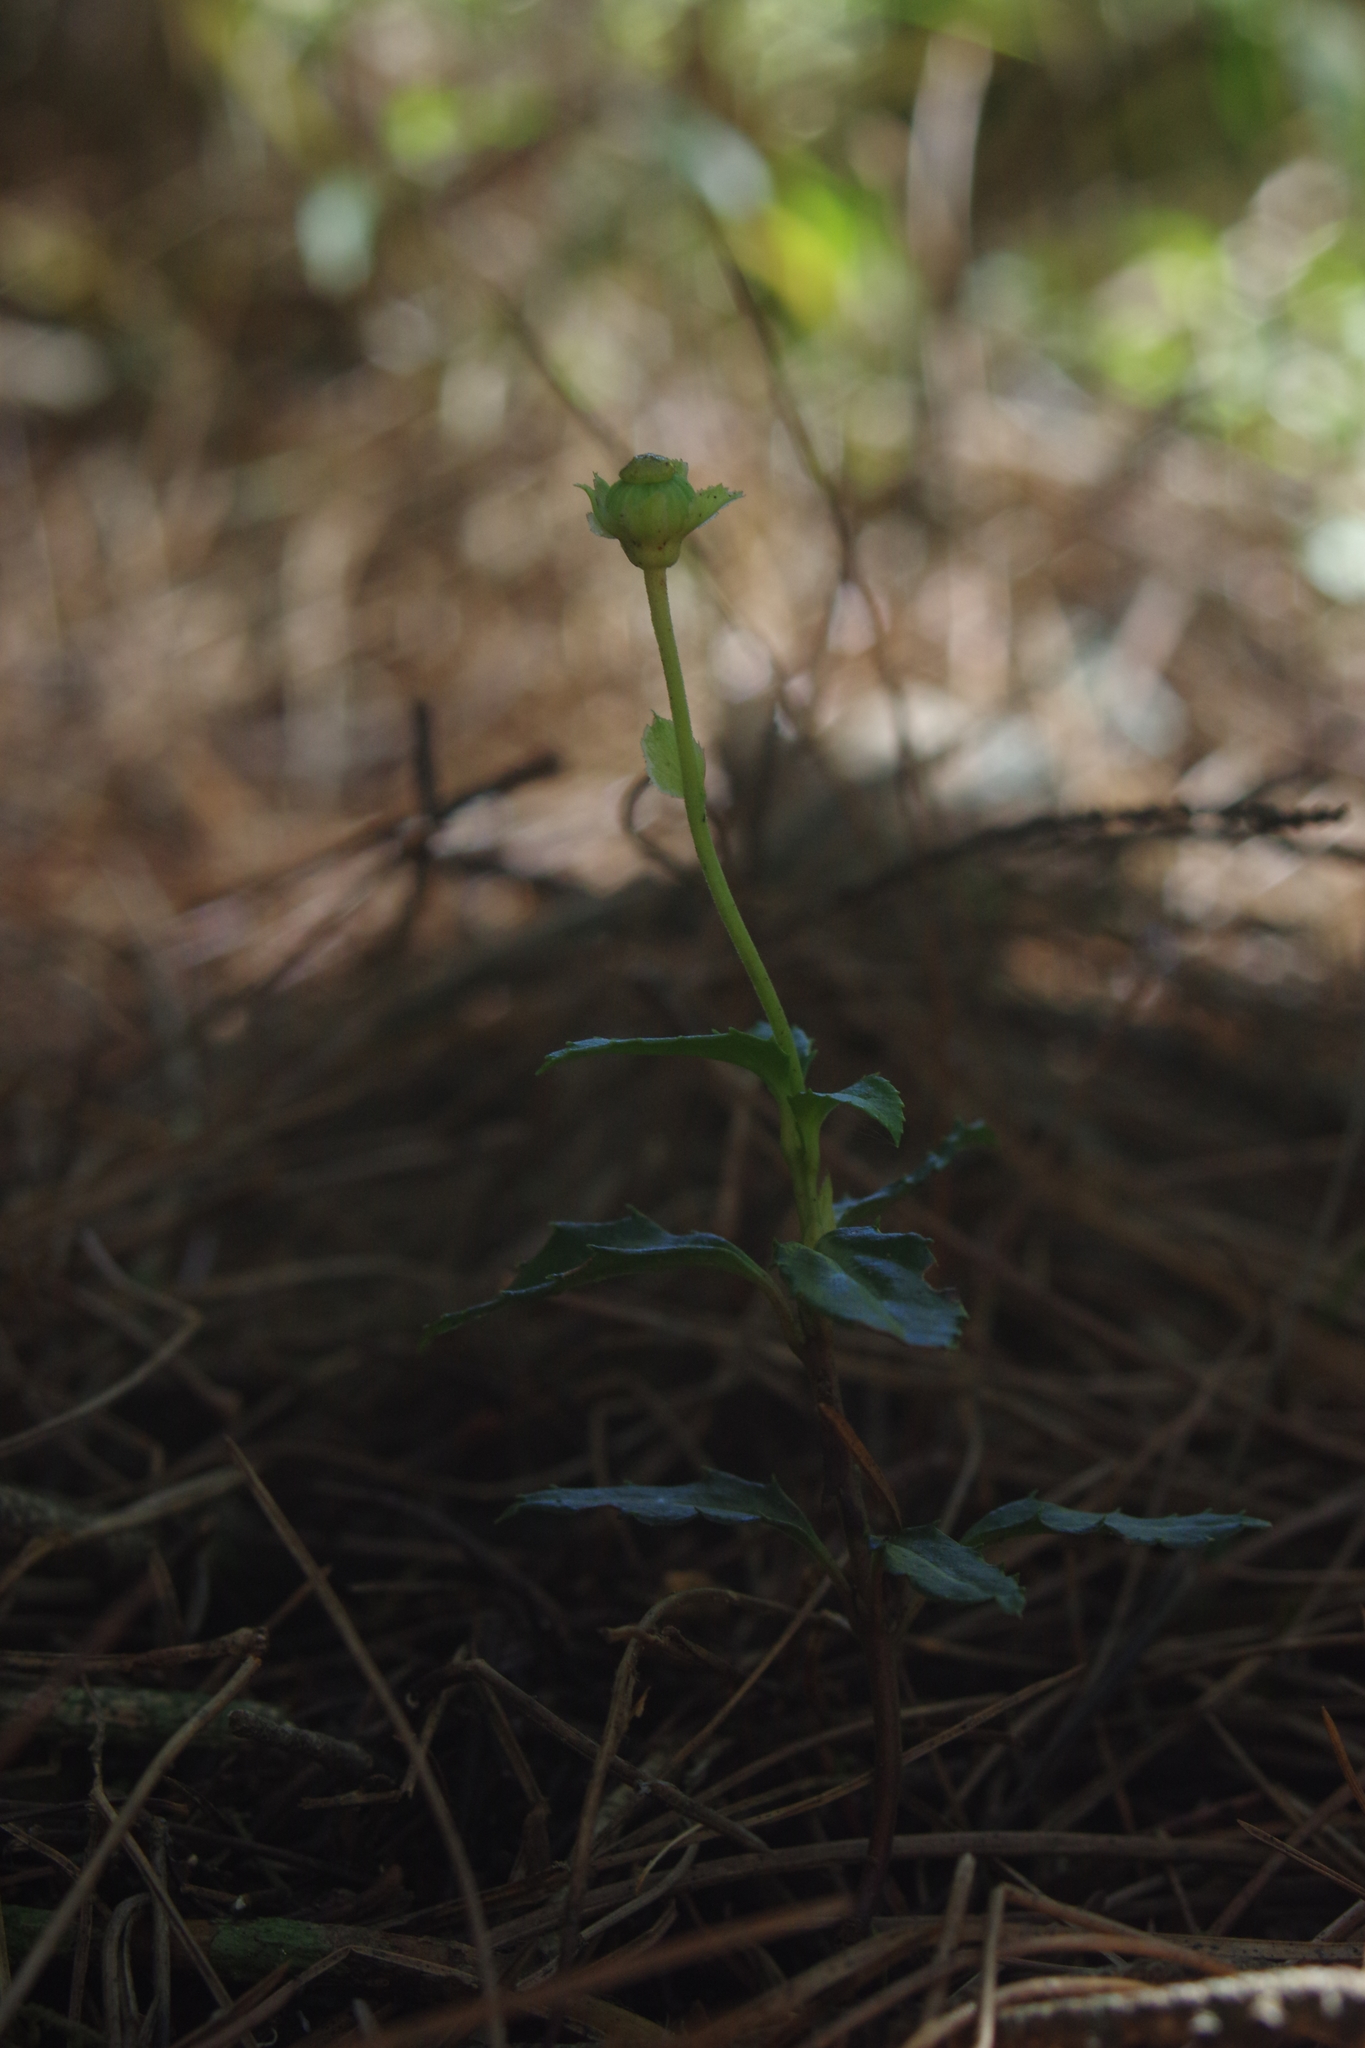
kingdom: Plantae
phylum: Tracheophyta
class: Magnoliopsida
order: Ericales
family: Ericaceae
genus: Chimaphila
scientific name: Chimaphila japonica
